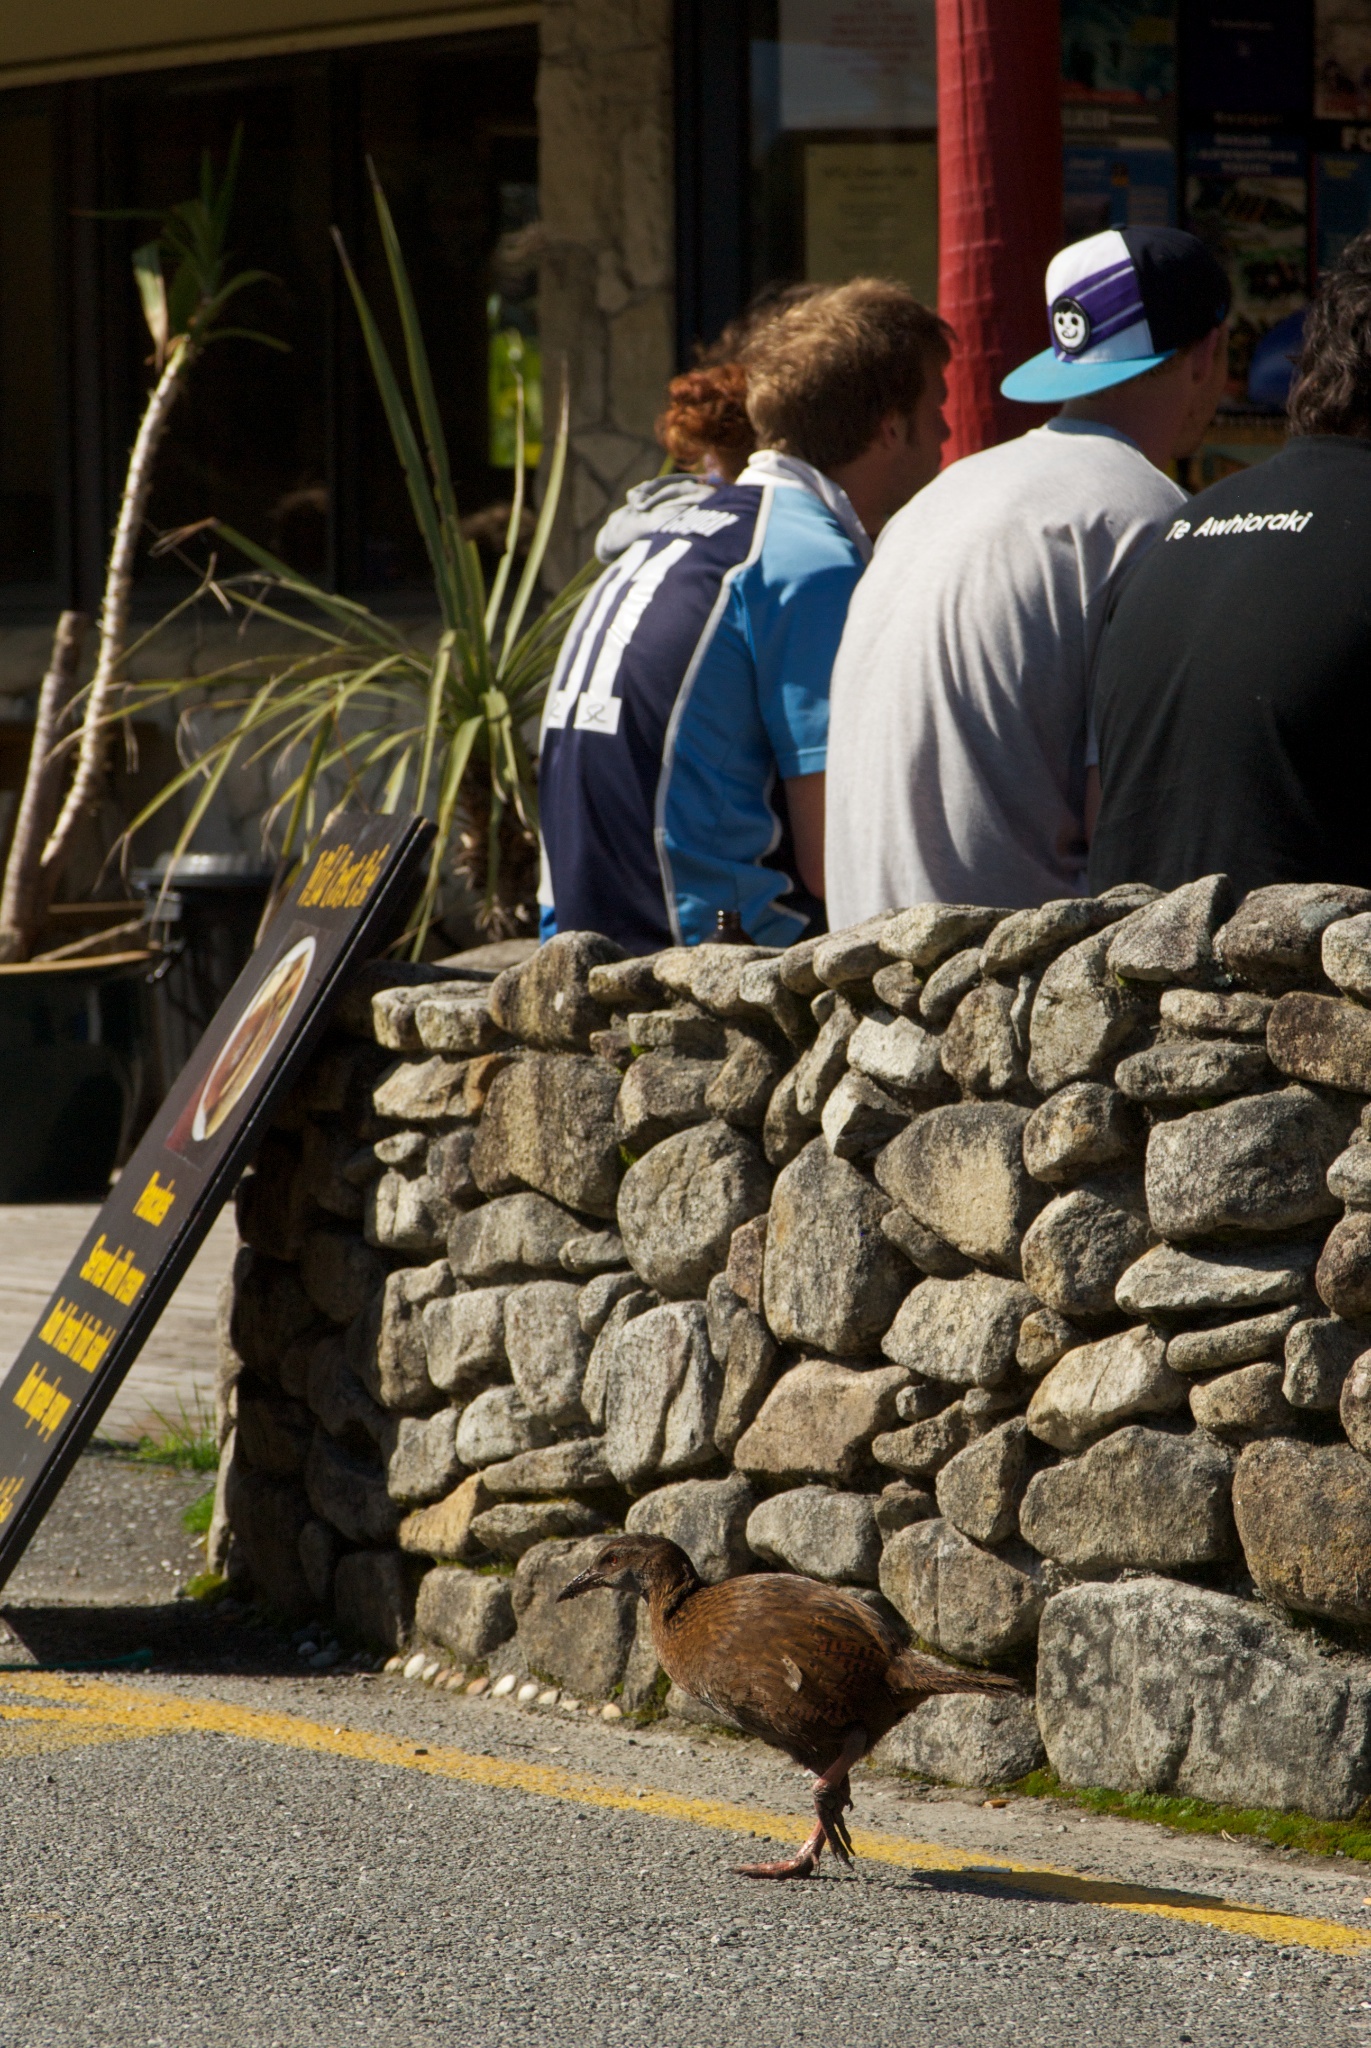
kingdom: Animalia
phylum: Chordata
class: Aves
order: Gruiformes
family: Rallidae
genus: Gallirallus
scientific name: Gallirallus australis
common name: Weka
